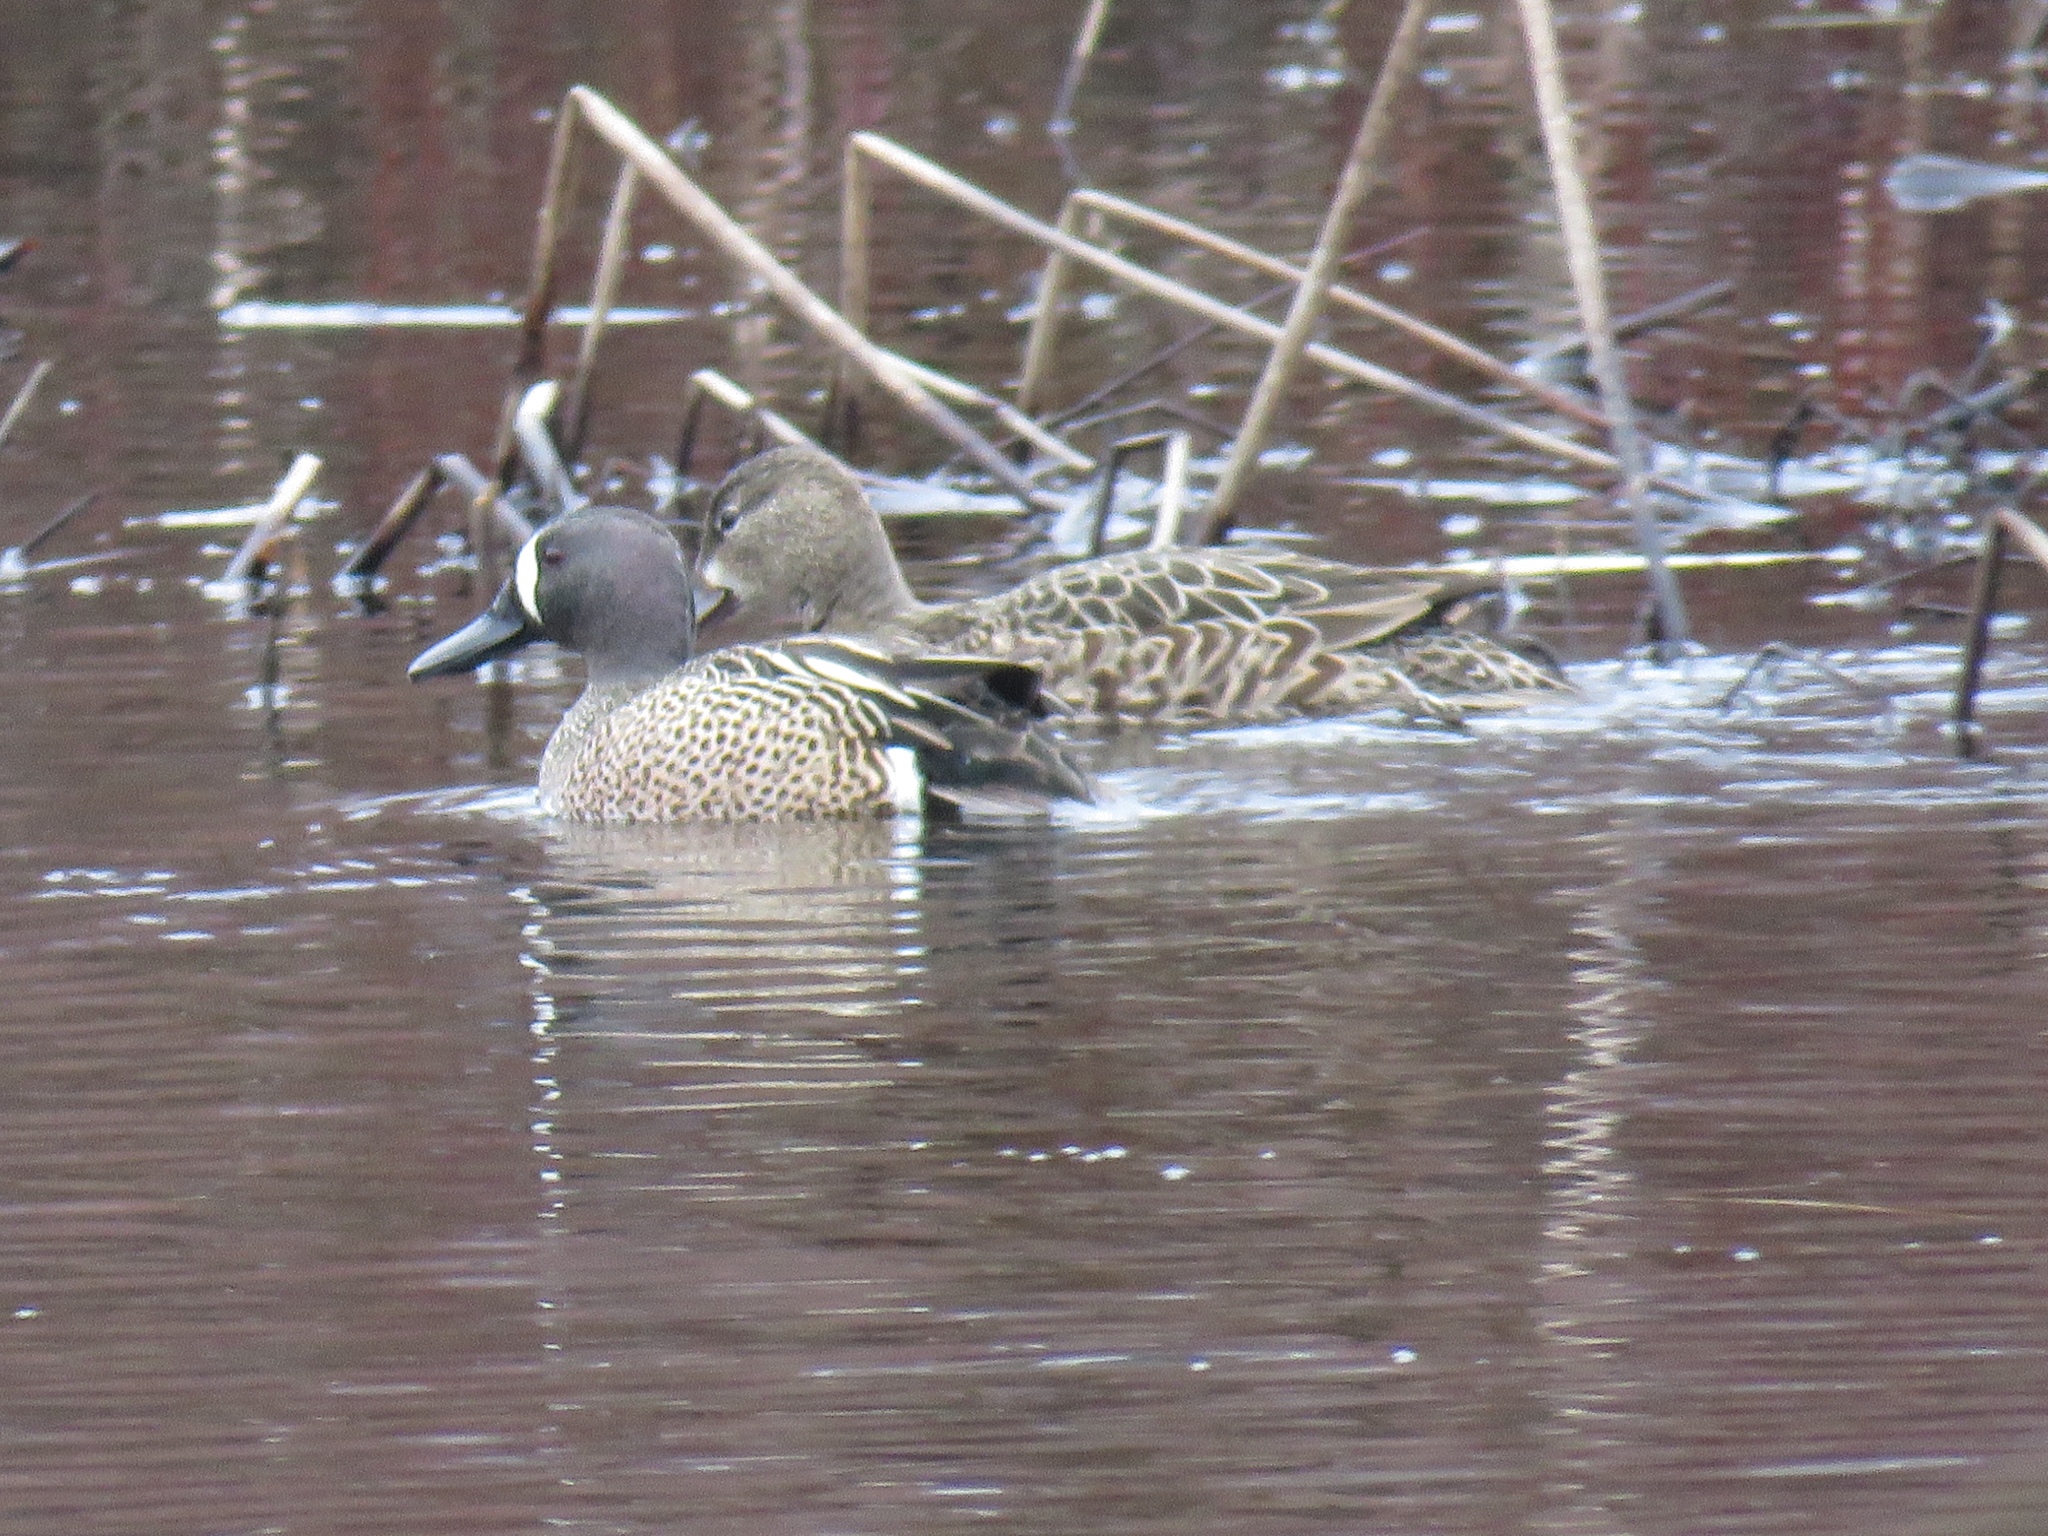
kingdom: Animalia
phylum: Chordata
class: Aves
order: Anseriformes
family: Anatidae
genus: Spatula
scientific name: Spatula discors
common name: Blue-winged teal
